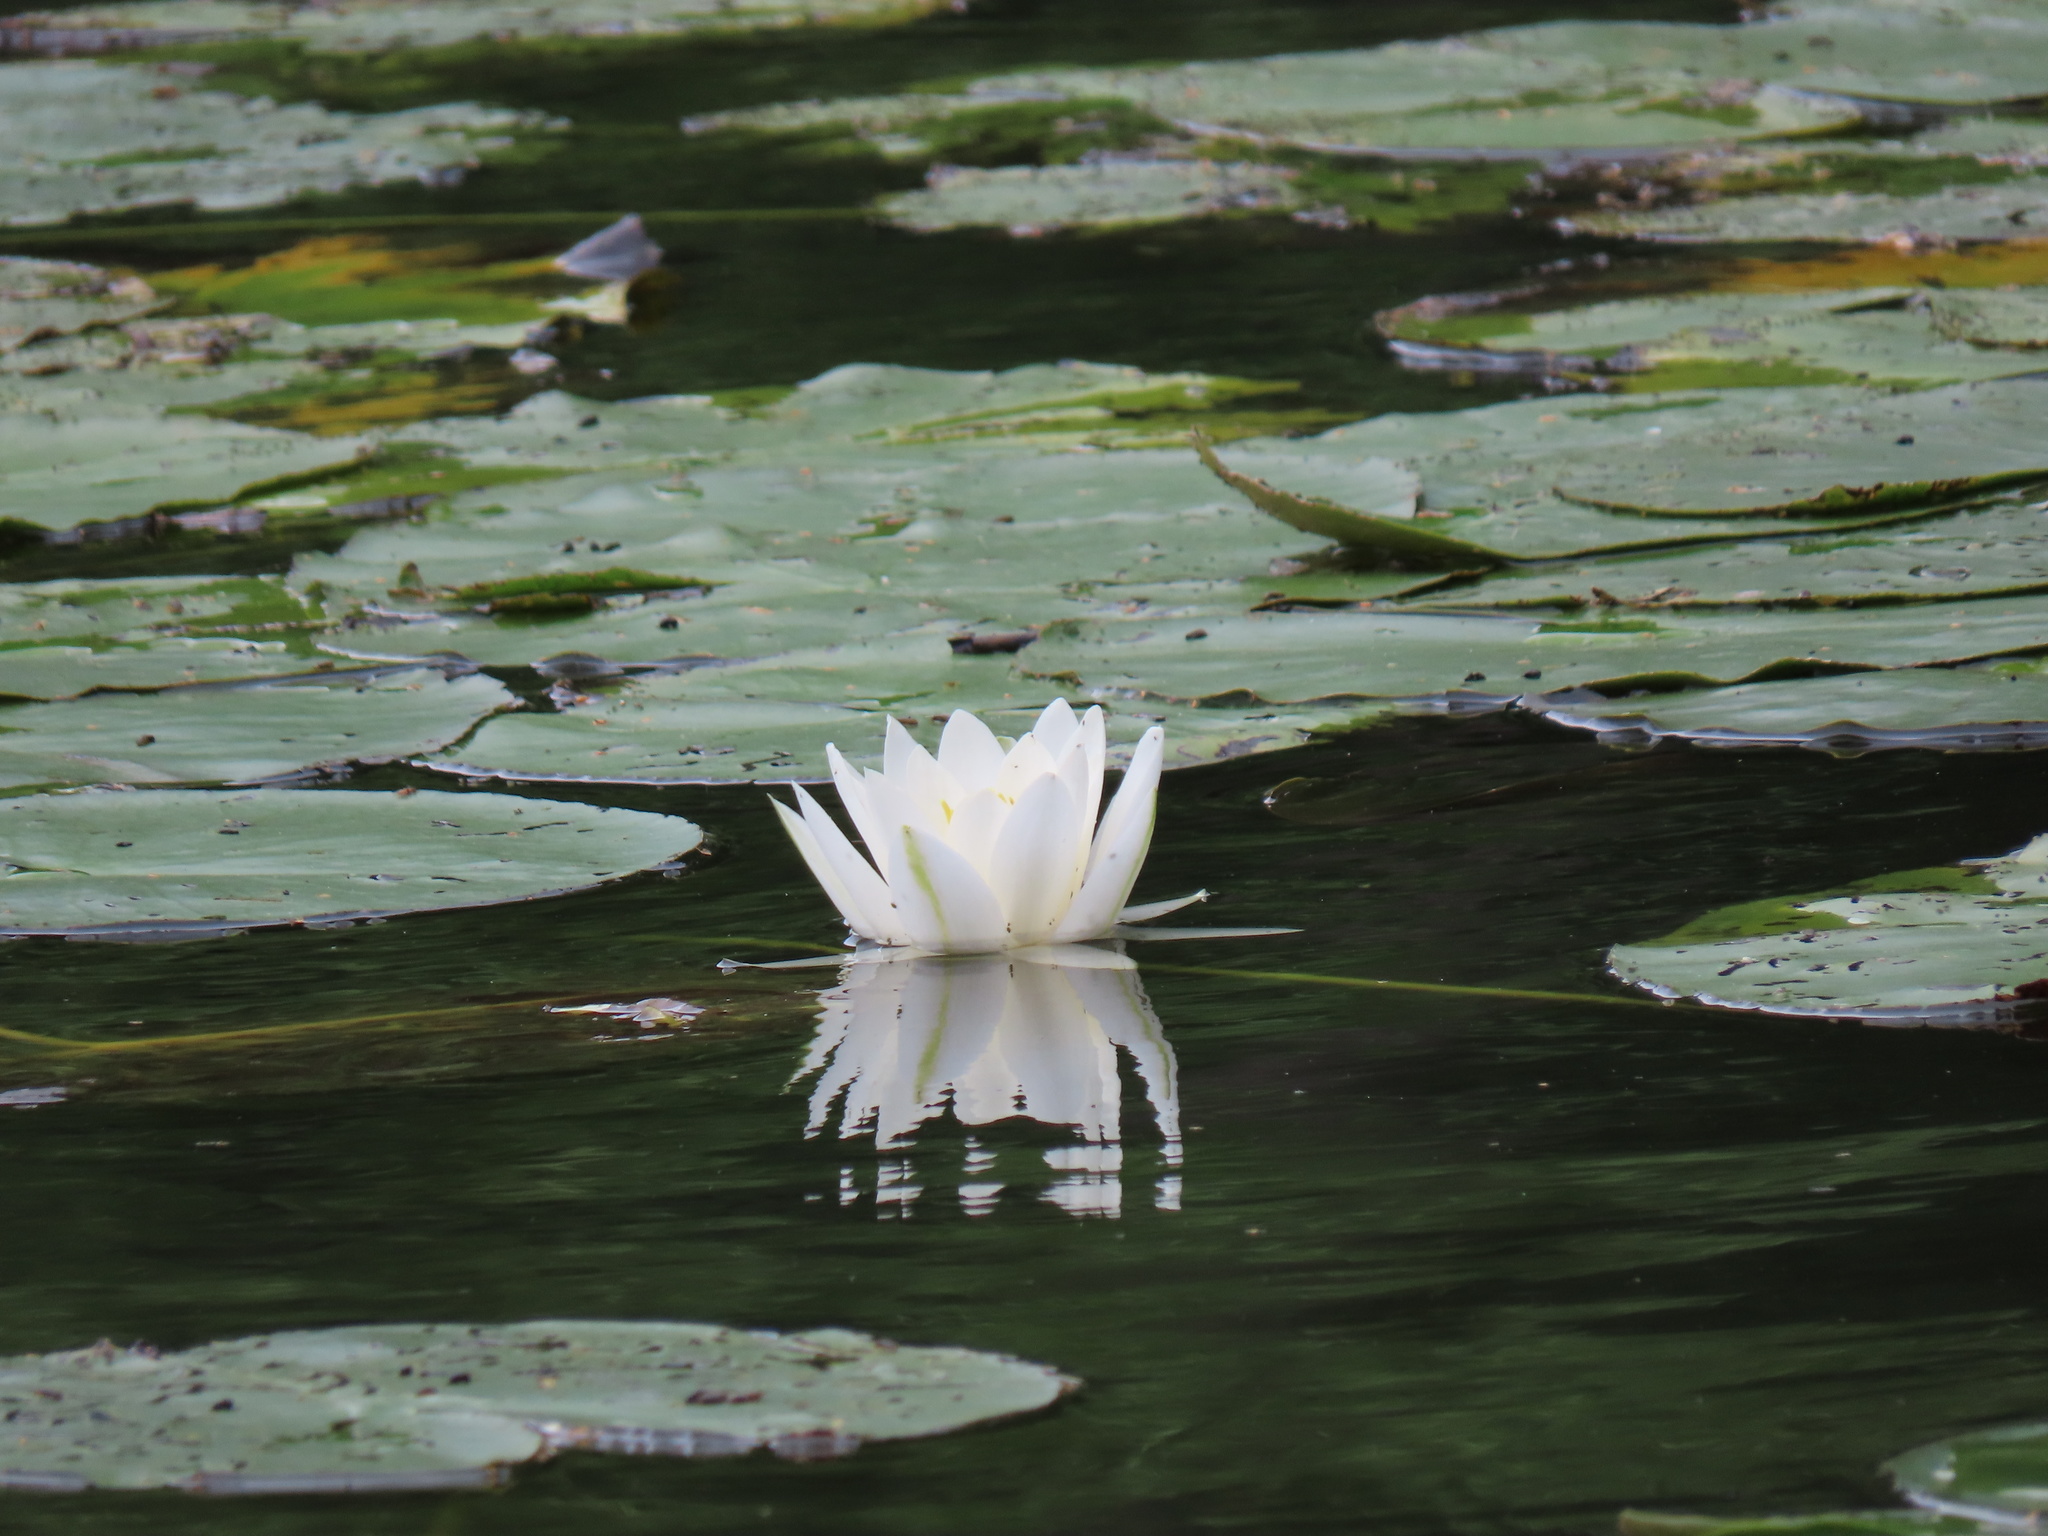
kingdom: Plantae
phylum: Tracheophyta
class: Magnoliopsida
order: Nymphaeales
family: Nymphaeaceae
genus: Nymphaea
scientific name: Nymphaea alba
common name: White water-lily
